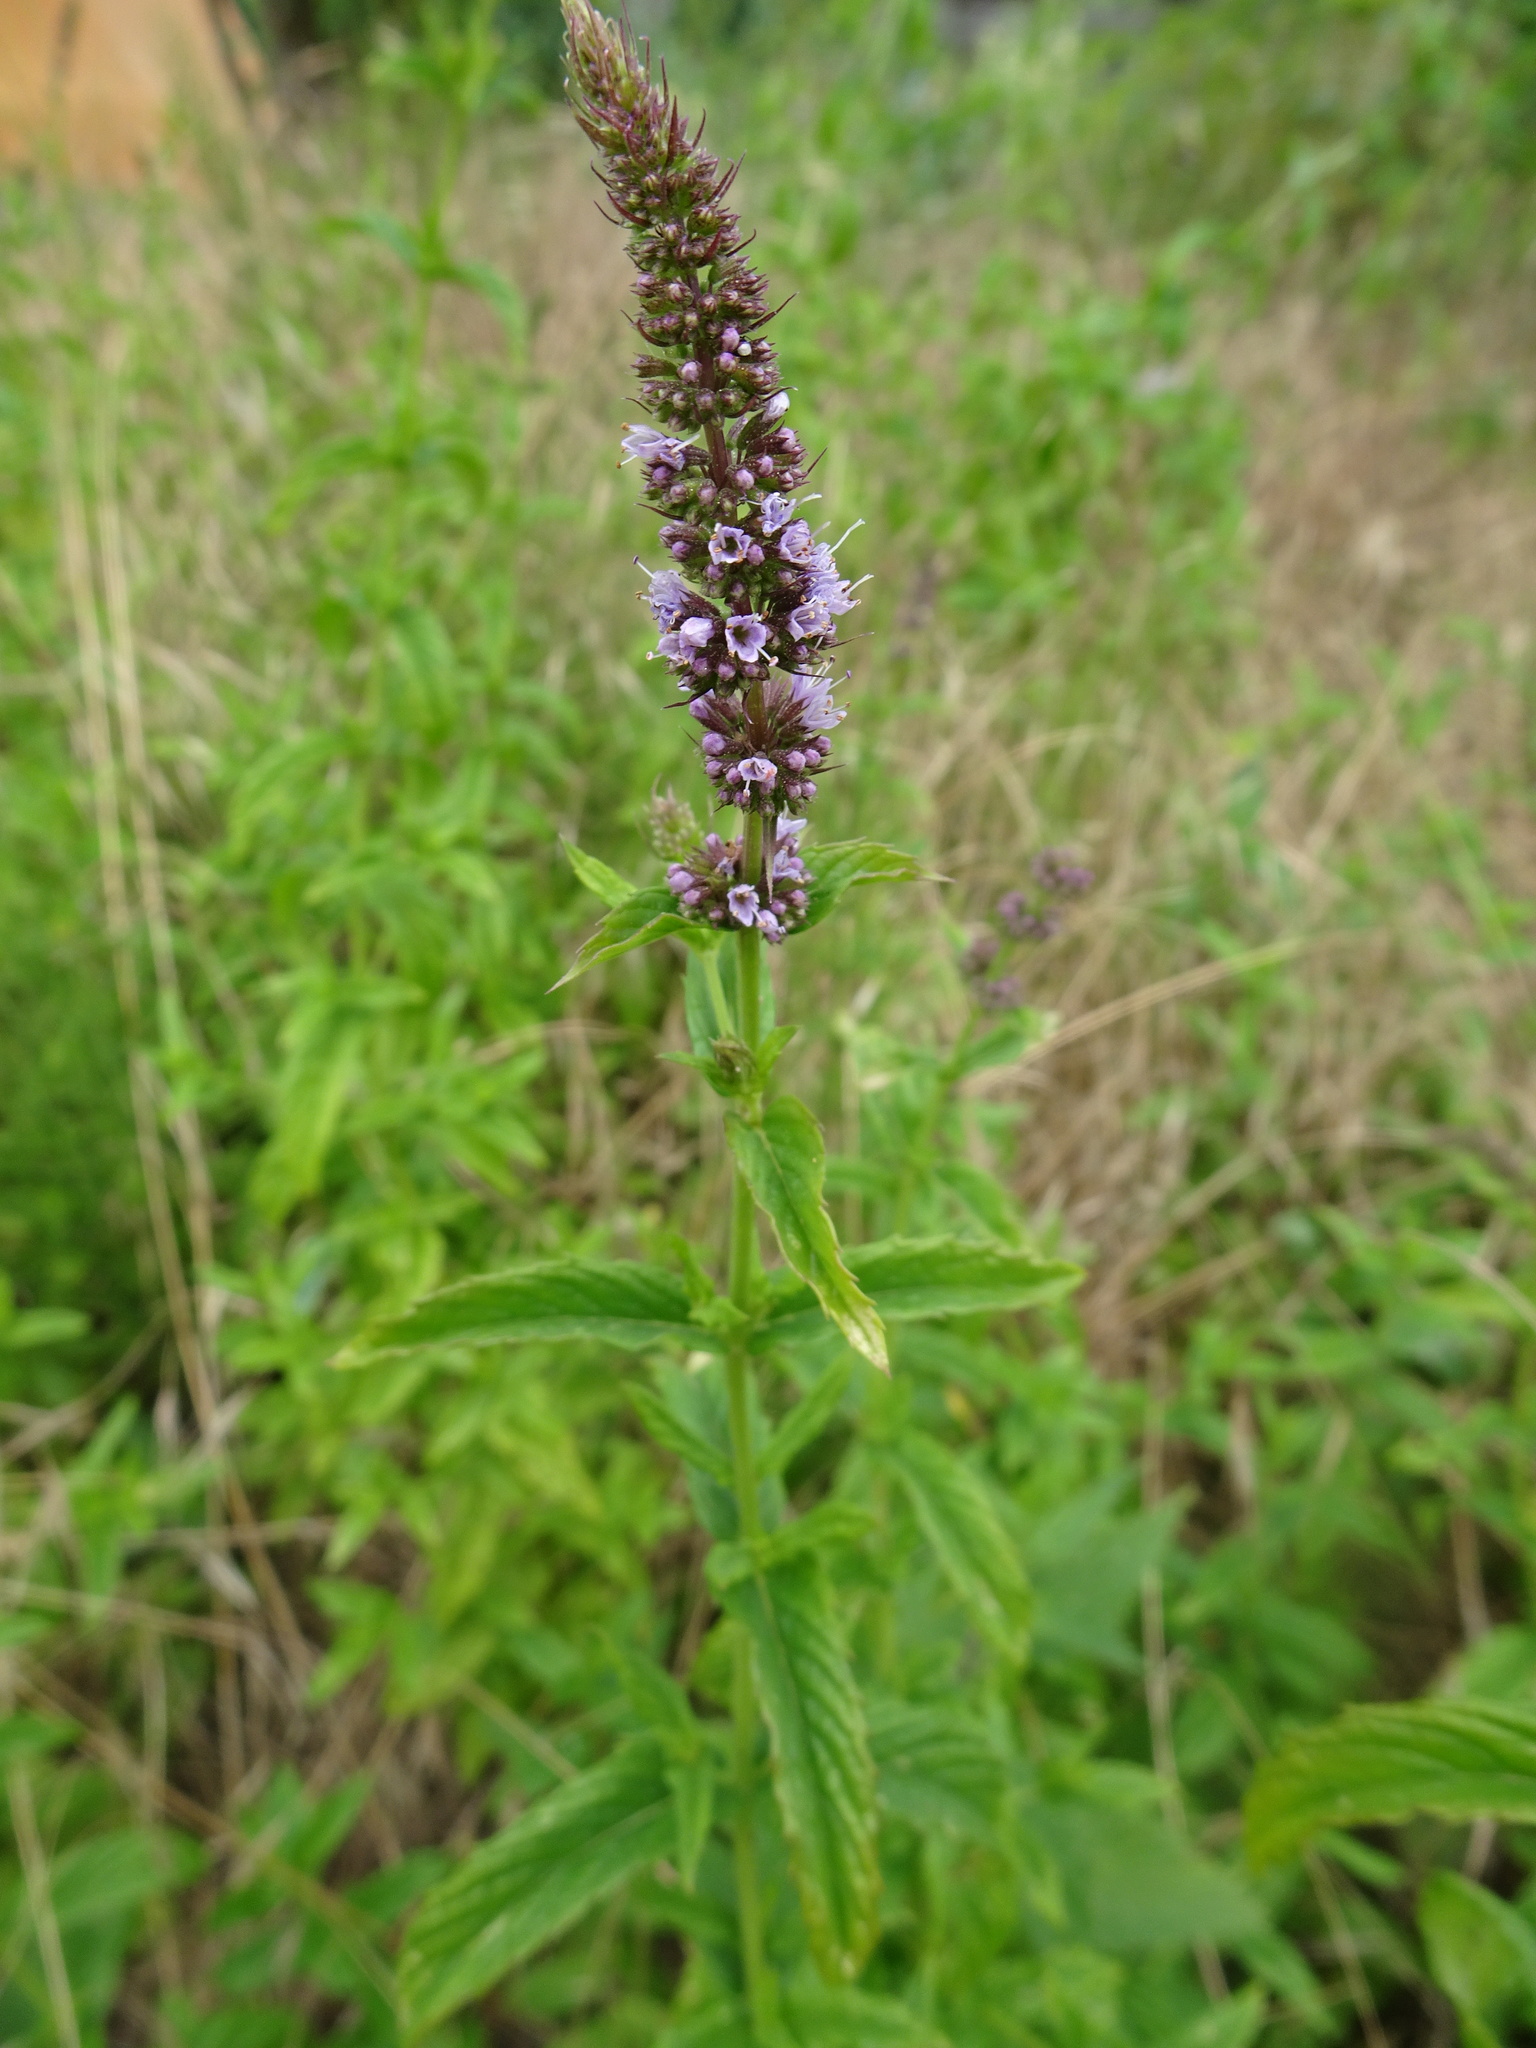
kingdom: Plantae
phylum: Tracheophyta
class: Magnoliopsida
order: Lamiales
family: Lamiaceae
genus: Mentha
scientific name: Mentha spicata
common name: Spearmint
